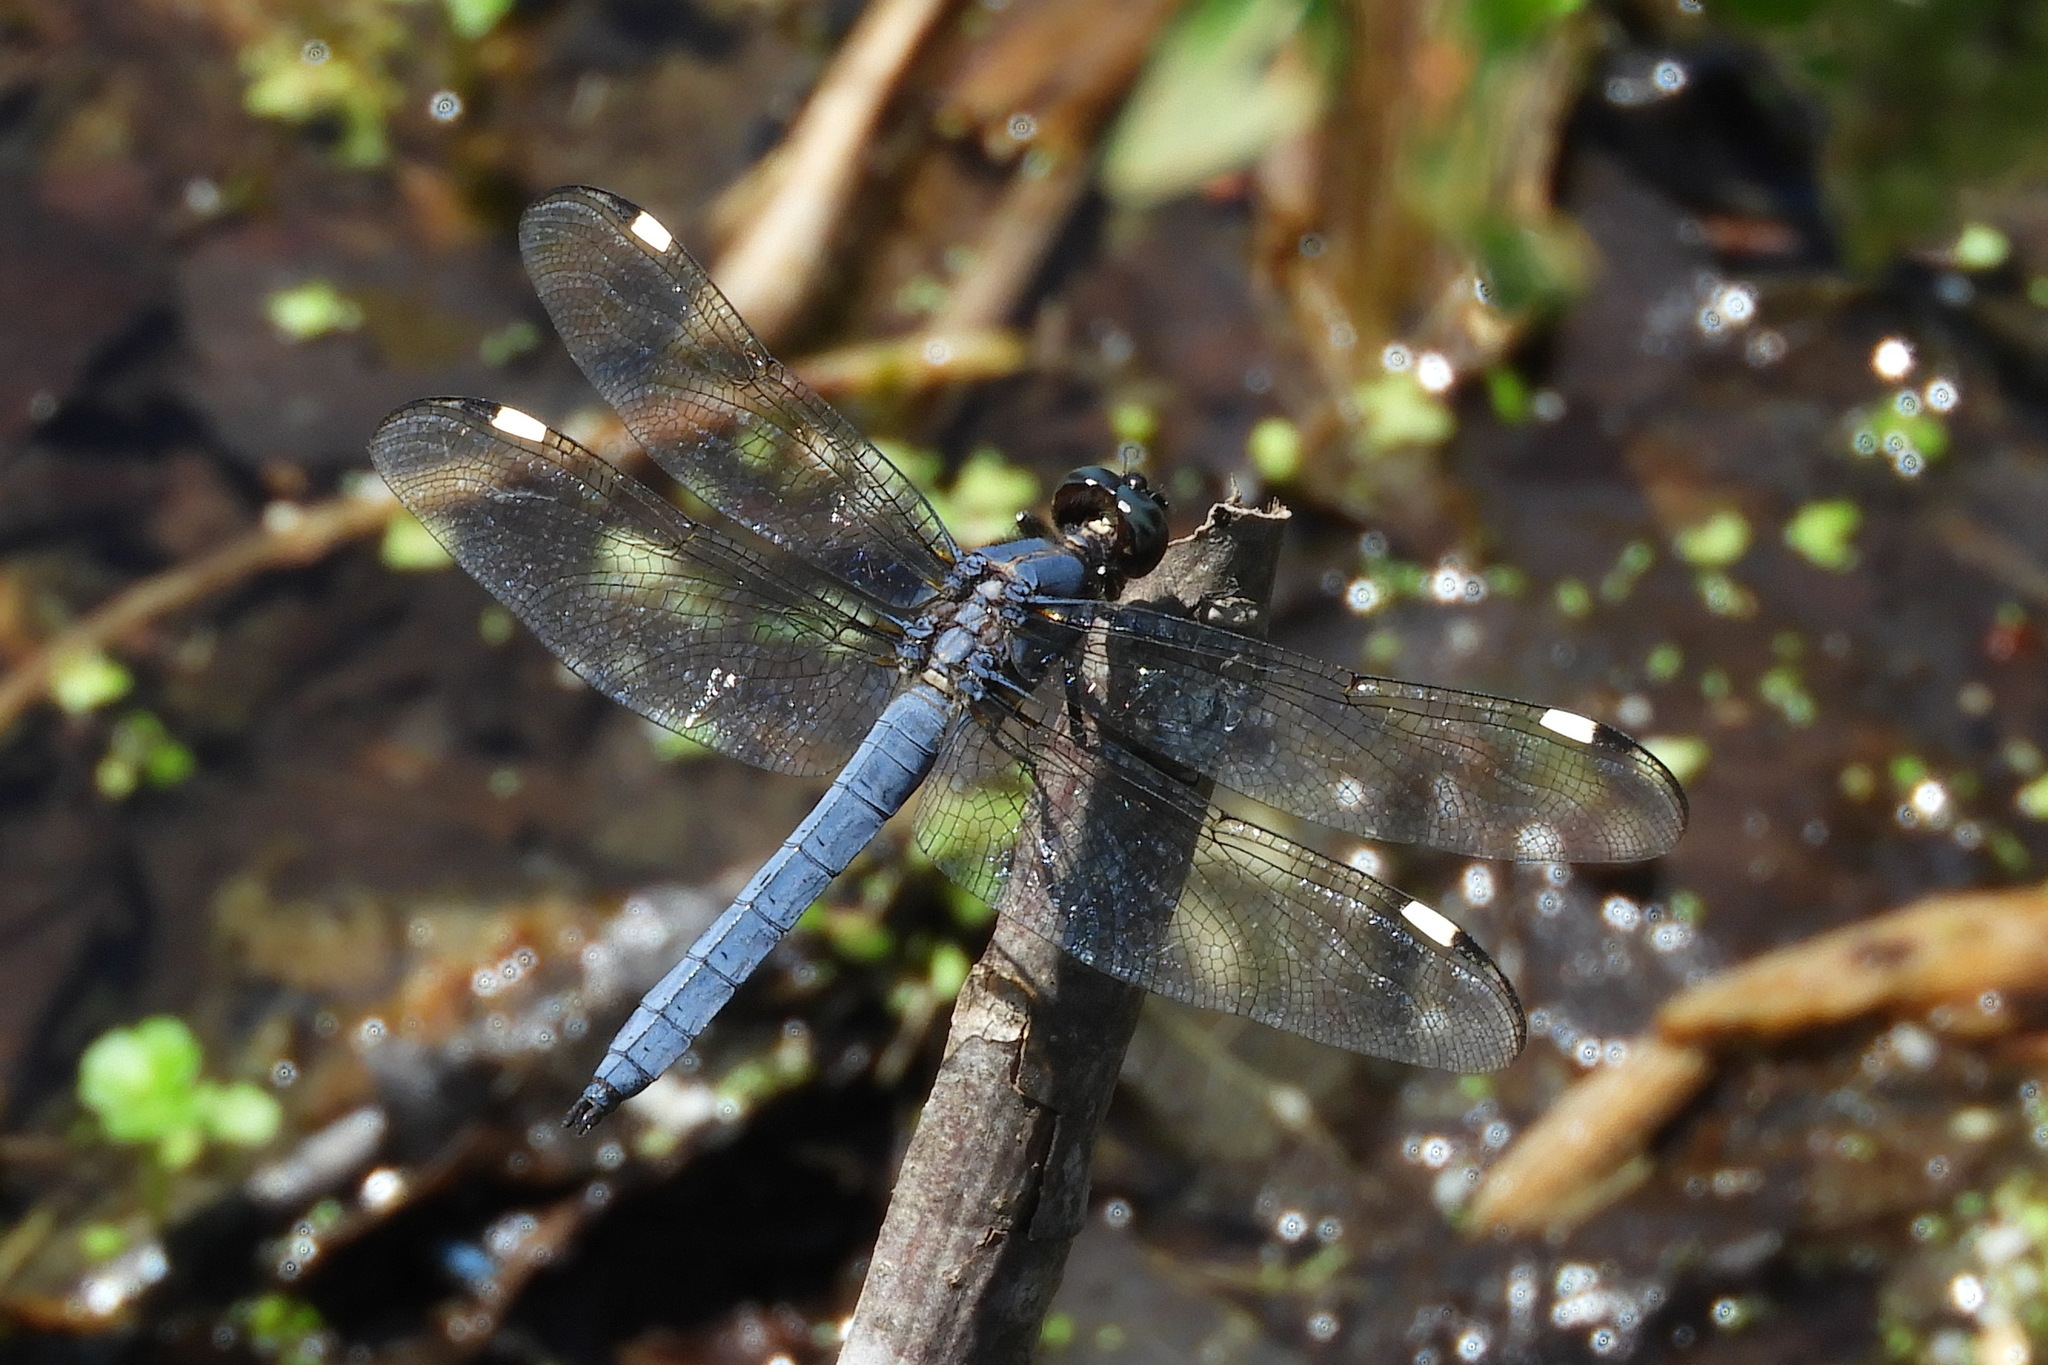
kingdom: Animalia
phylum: Arthropoda
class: Insecta
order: Odonata
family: Libellulidae
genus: Libellula
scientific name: Libellula cyanea
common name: Spangled skimmer
